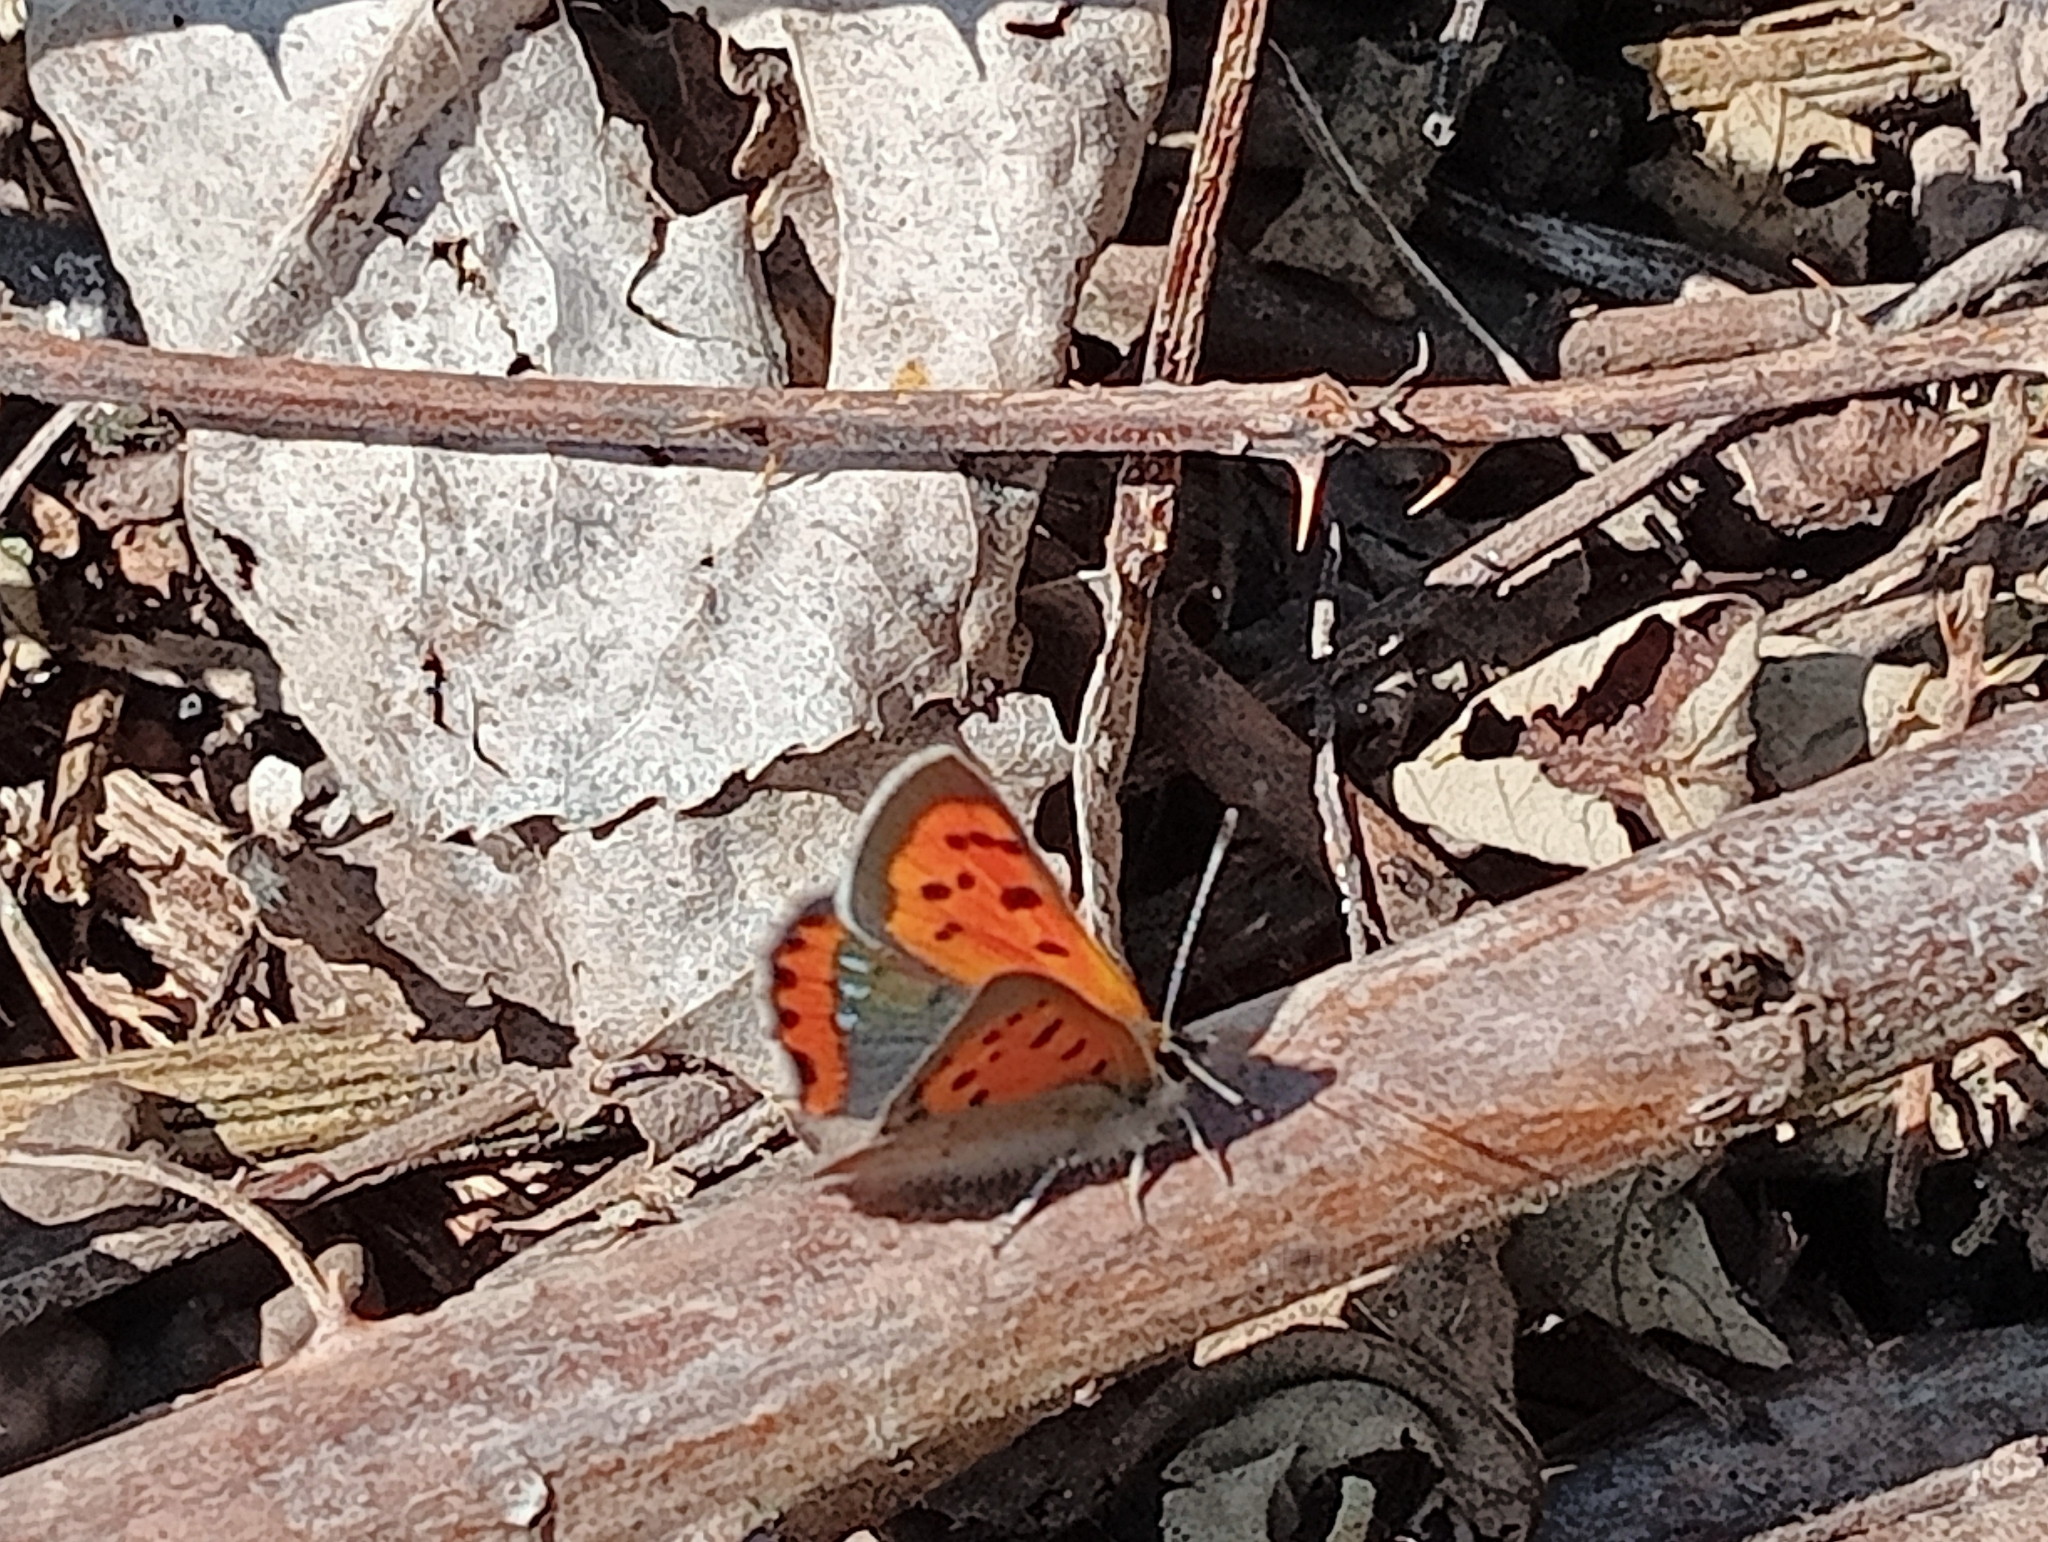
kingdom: Animalia
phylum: Arthropoda
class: Insecta
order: Lepidoptera
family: Lycaenidae
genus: Lycaena
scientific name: Lycaena phlaeas
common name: Small copper
